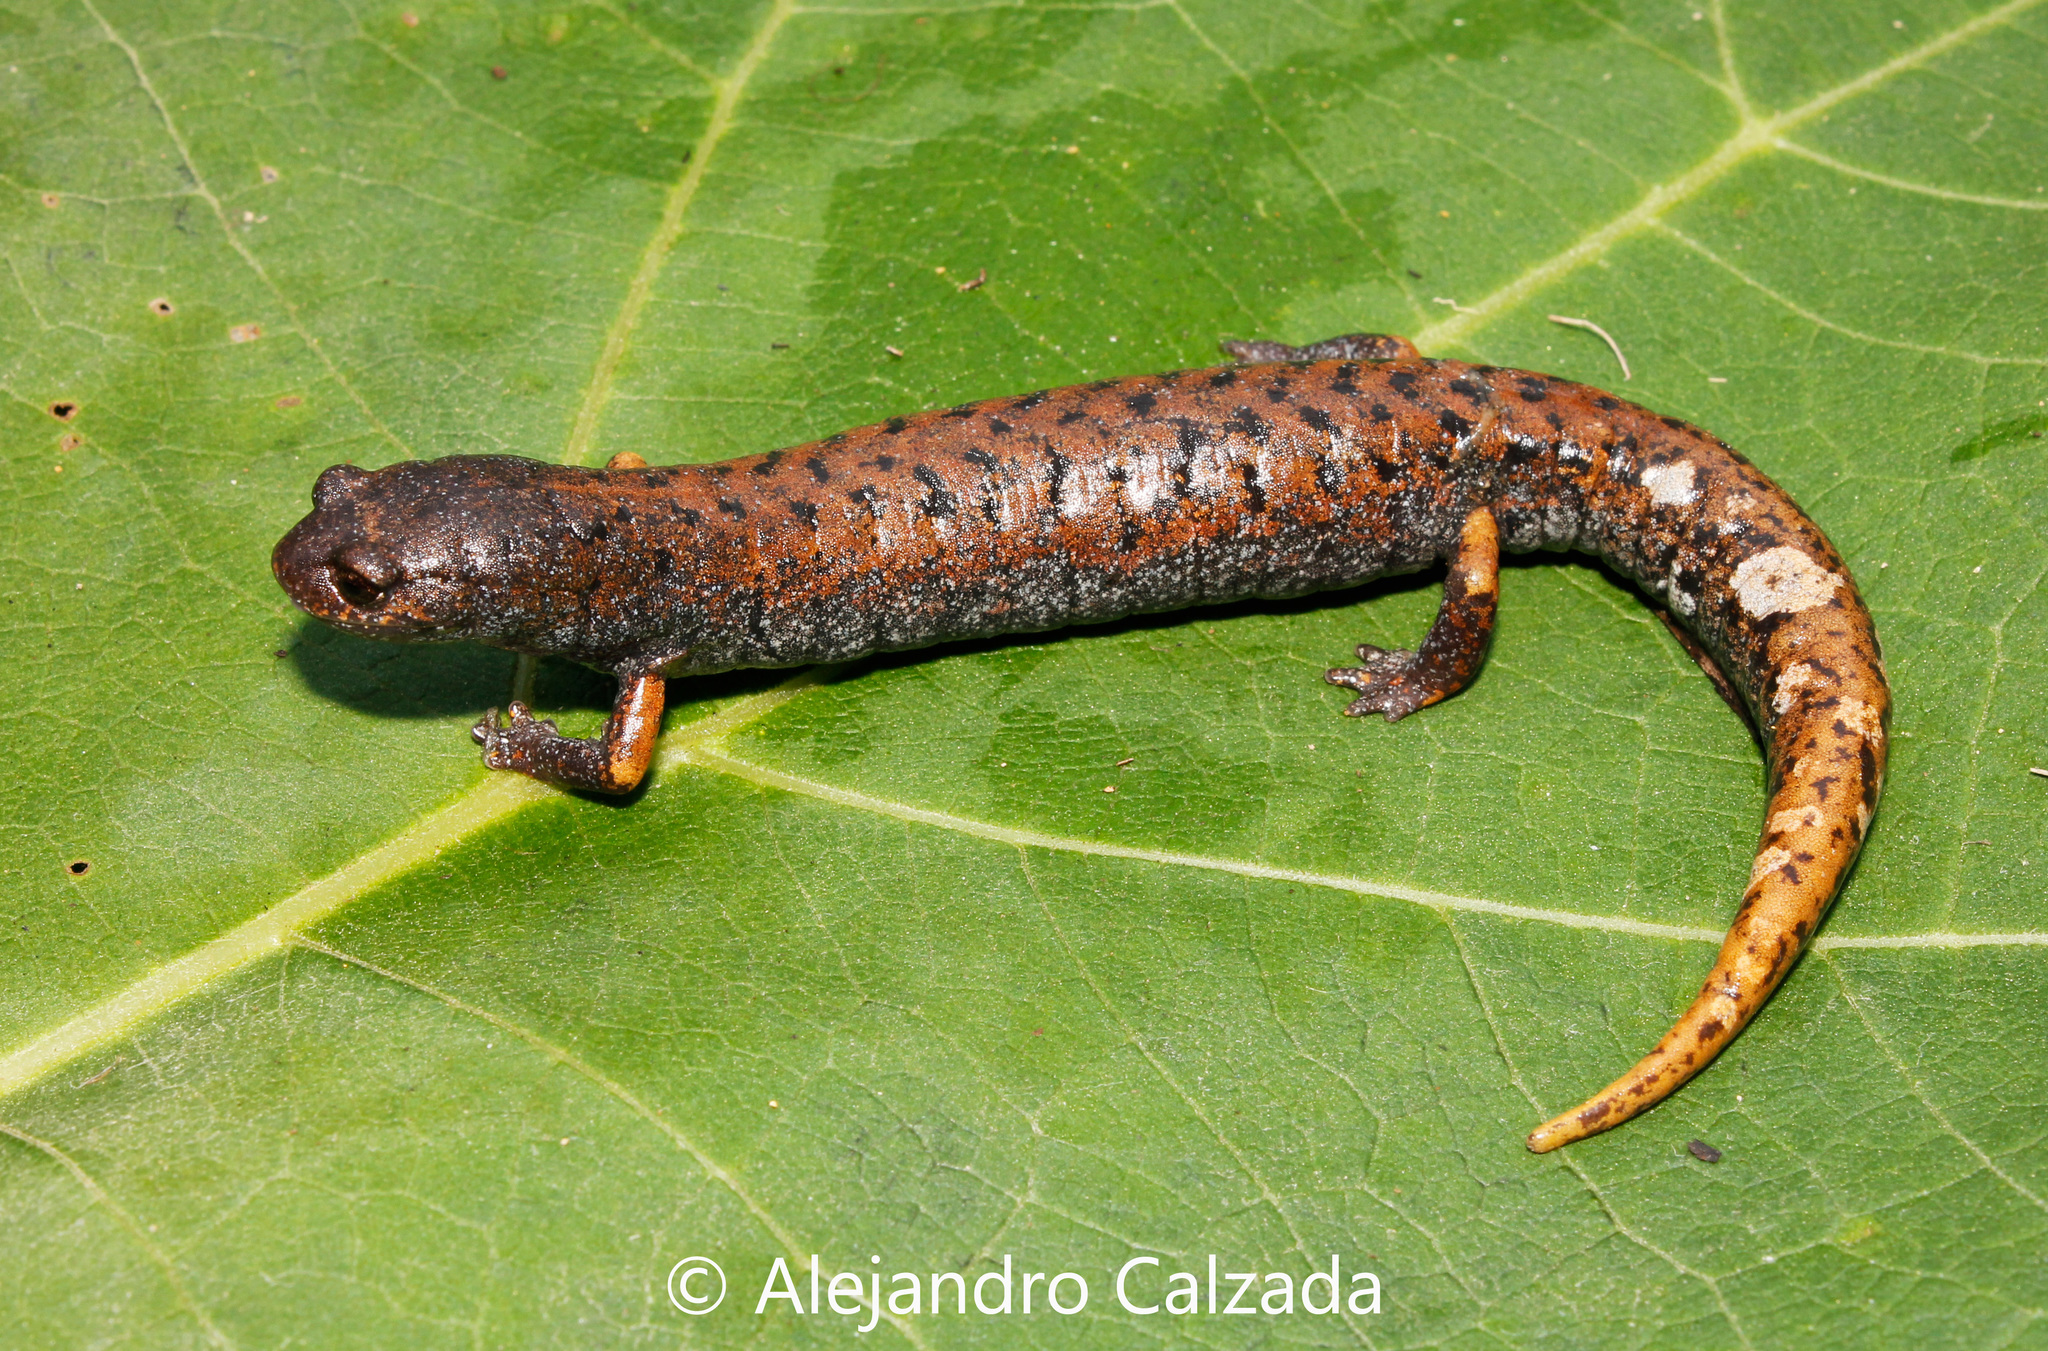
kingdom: Animalia
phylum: Chordata
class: Amphibia
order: Caudata
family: Plethodontidae
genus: Pseudoeurycea
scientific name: Pseudoeurycea mystax
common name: Mustache false brook salamander
